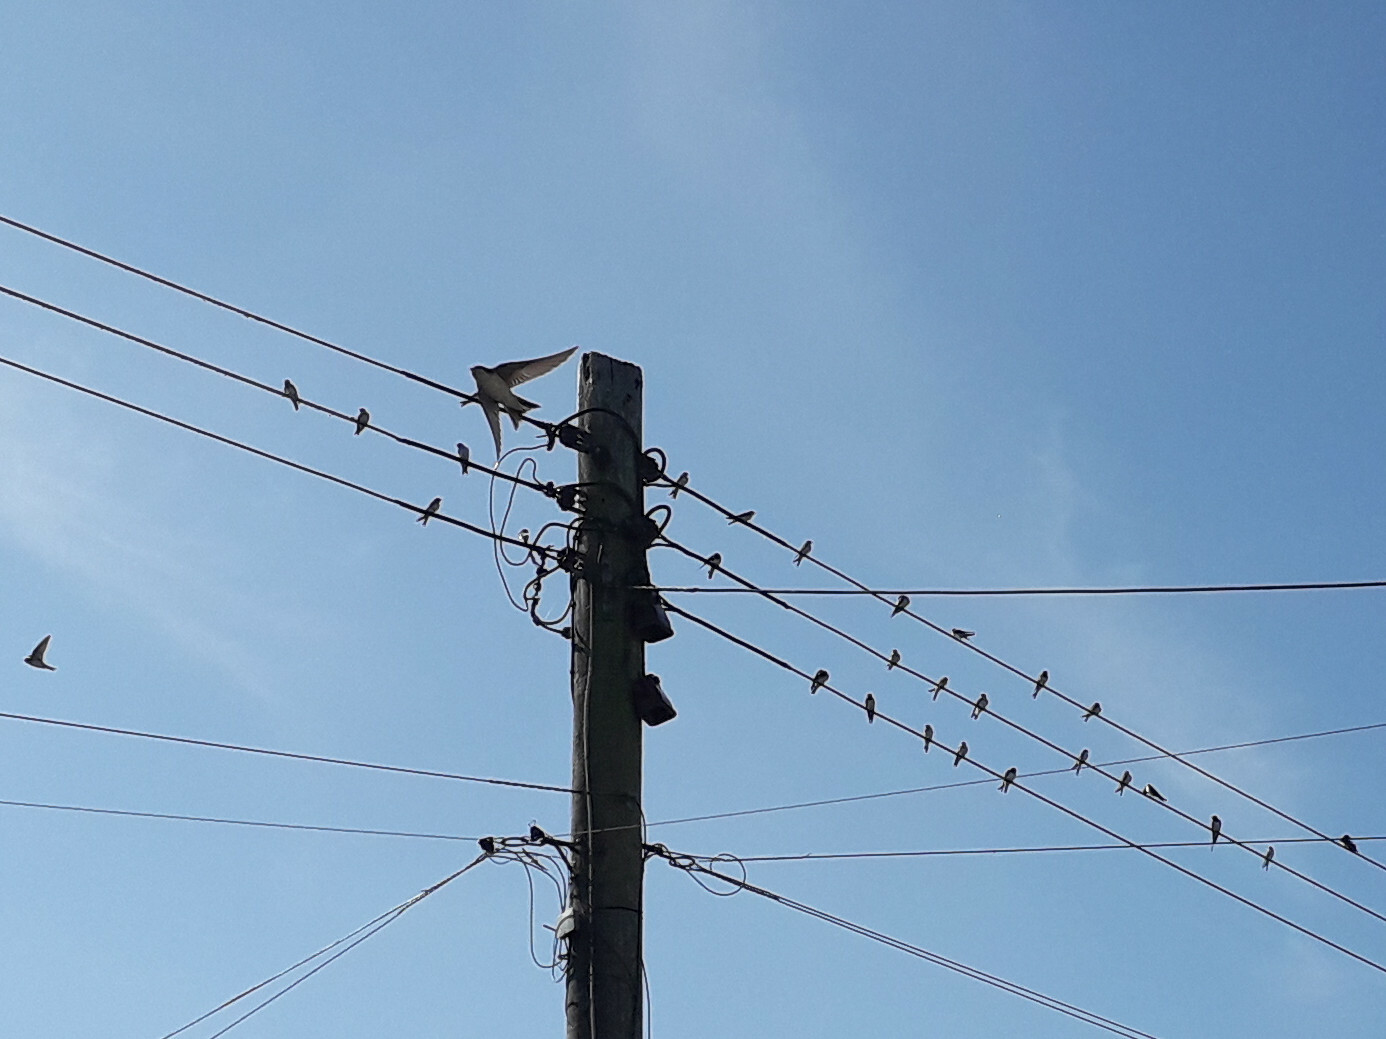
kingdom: Animalia
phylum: Chordata
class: Aves
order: Passeriformes
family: Hirundinidae
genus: Hirundo
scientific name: Hirundo rustica
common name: Barn swallow
